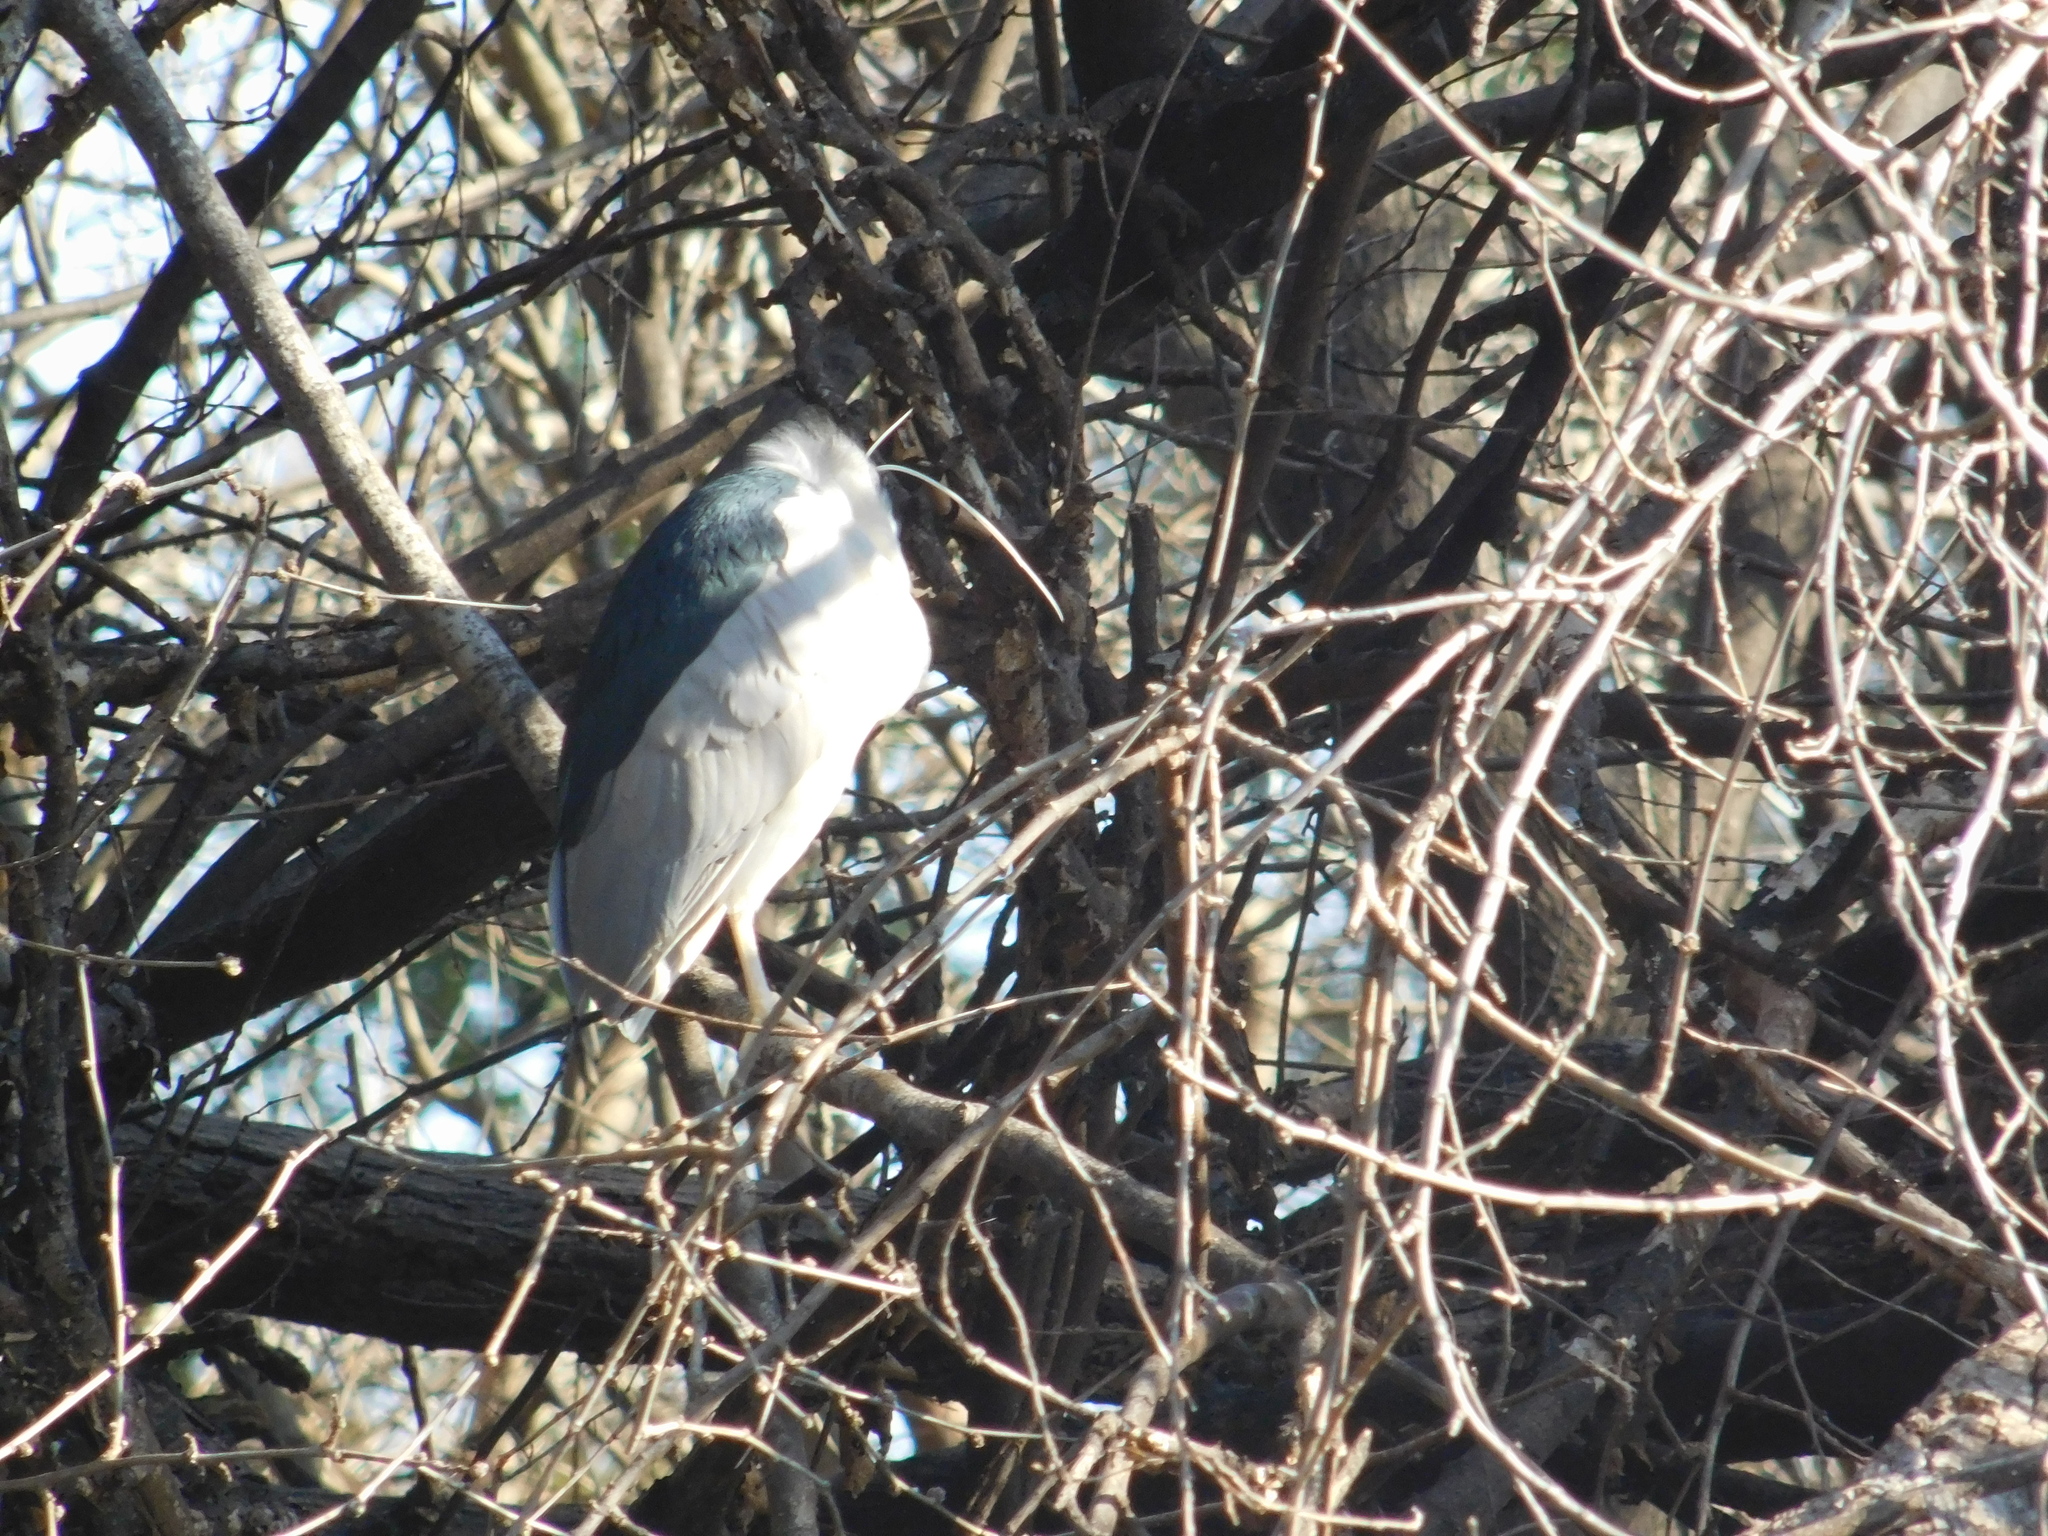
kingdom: Animalia
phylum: Chordata
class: Aves
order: Pelecaniformes
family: Ardeidae
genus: Nycticorax
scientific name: Nycticorax nycticorax
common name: Black-crowned night heron
